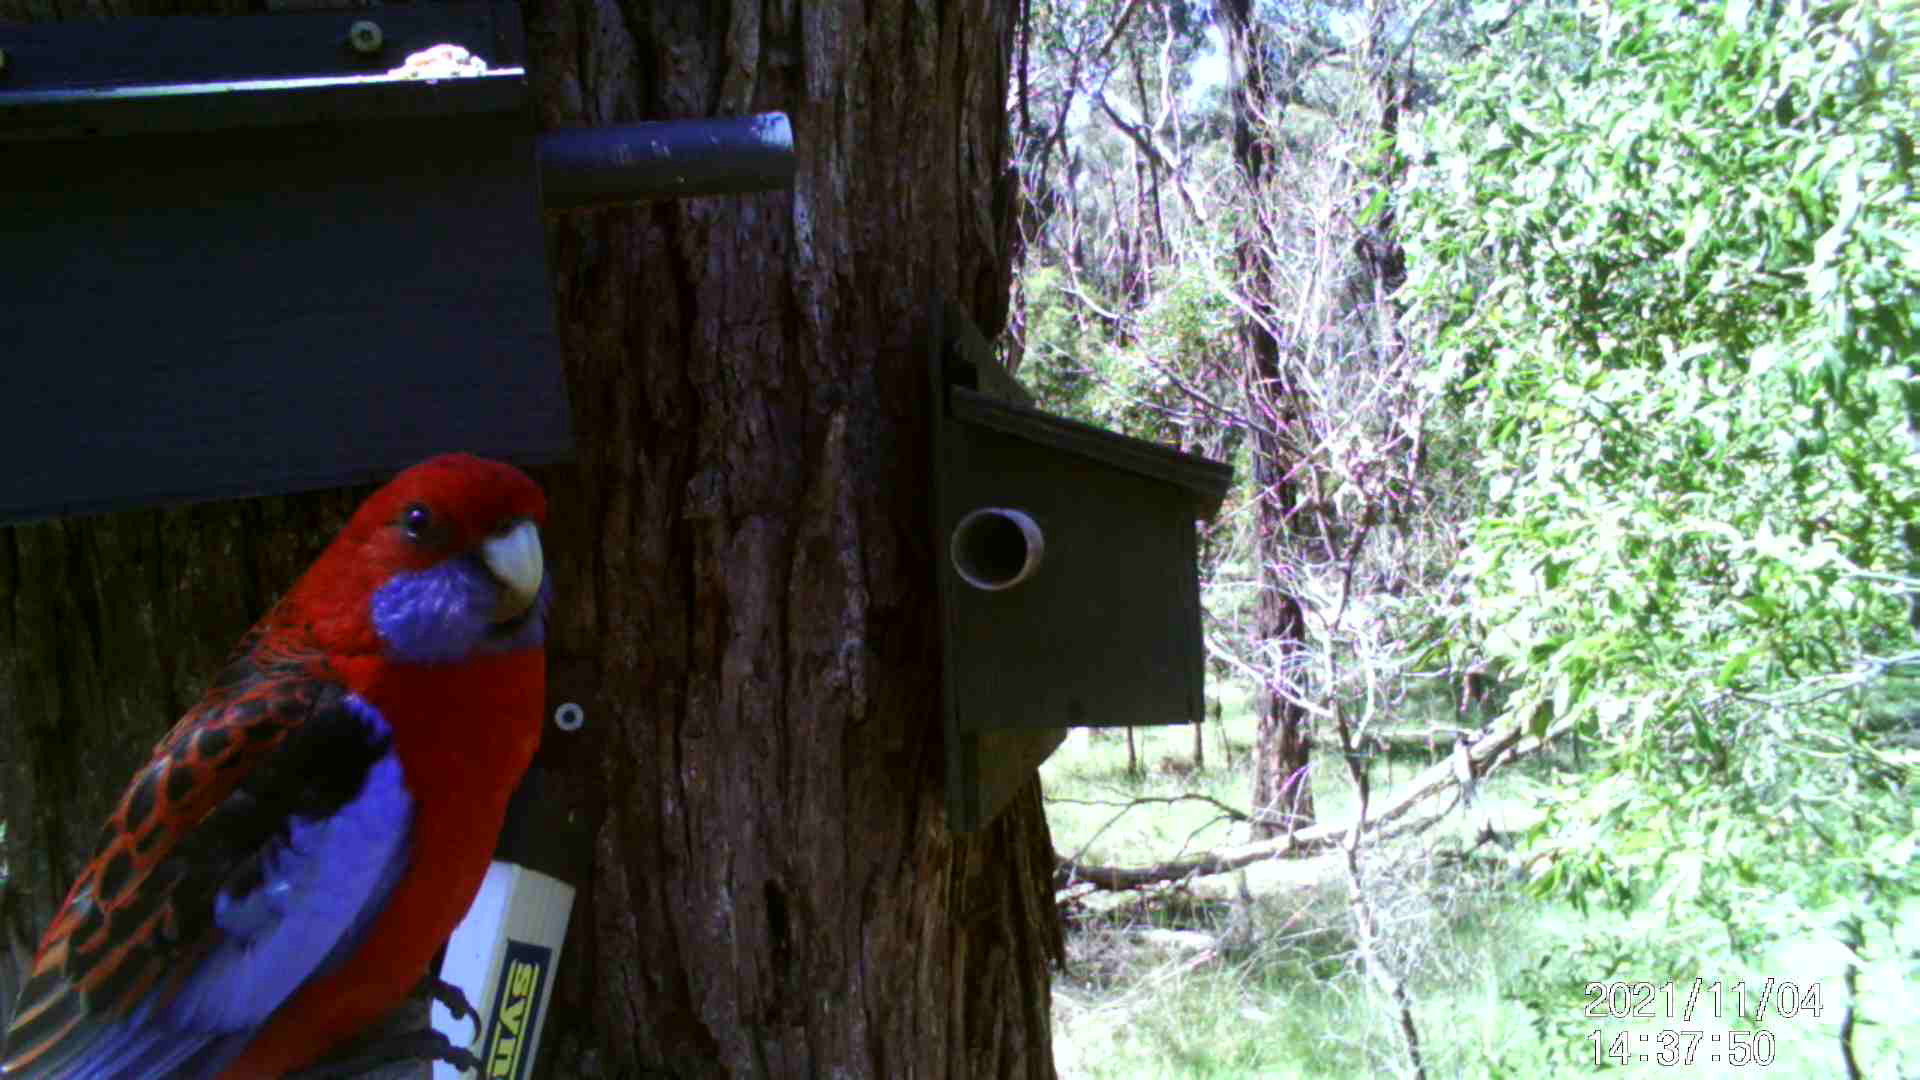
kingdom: Animalia
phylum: Chordata
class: Aves
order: Psittaciformes
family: Psittacidae
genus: Platycercus
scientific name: Platycercus elegans
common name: Crimson rosella
